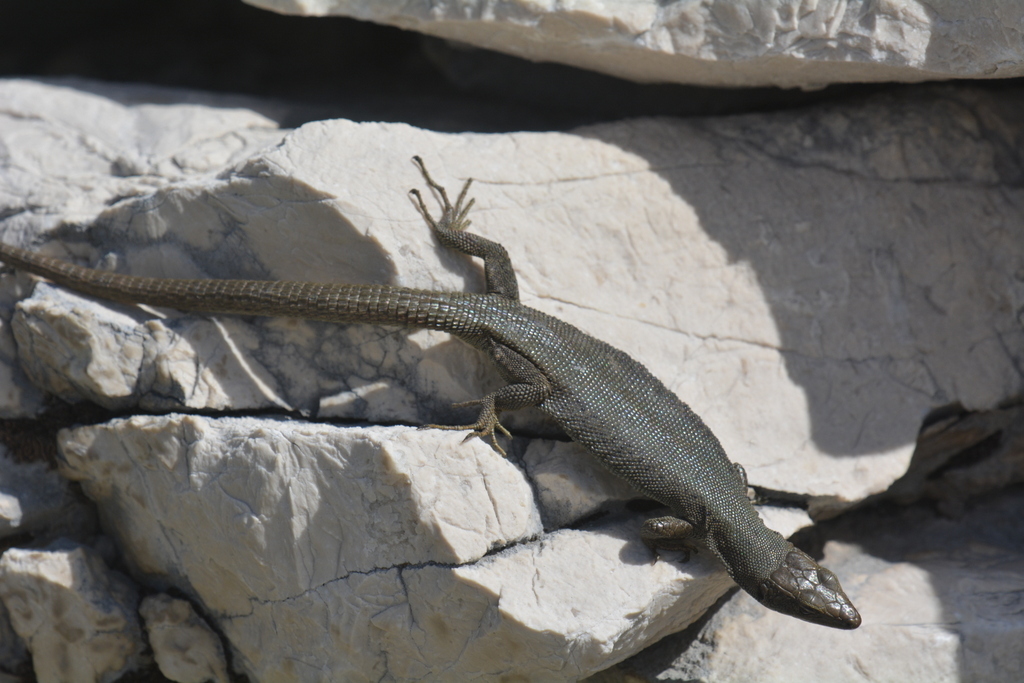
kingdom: Animalia
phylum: Chordata
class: Squamata
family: Lacertidae
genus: Dinarolacerta
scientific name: Dinarolacerta mosorensis
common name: Mosor rock lizard
